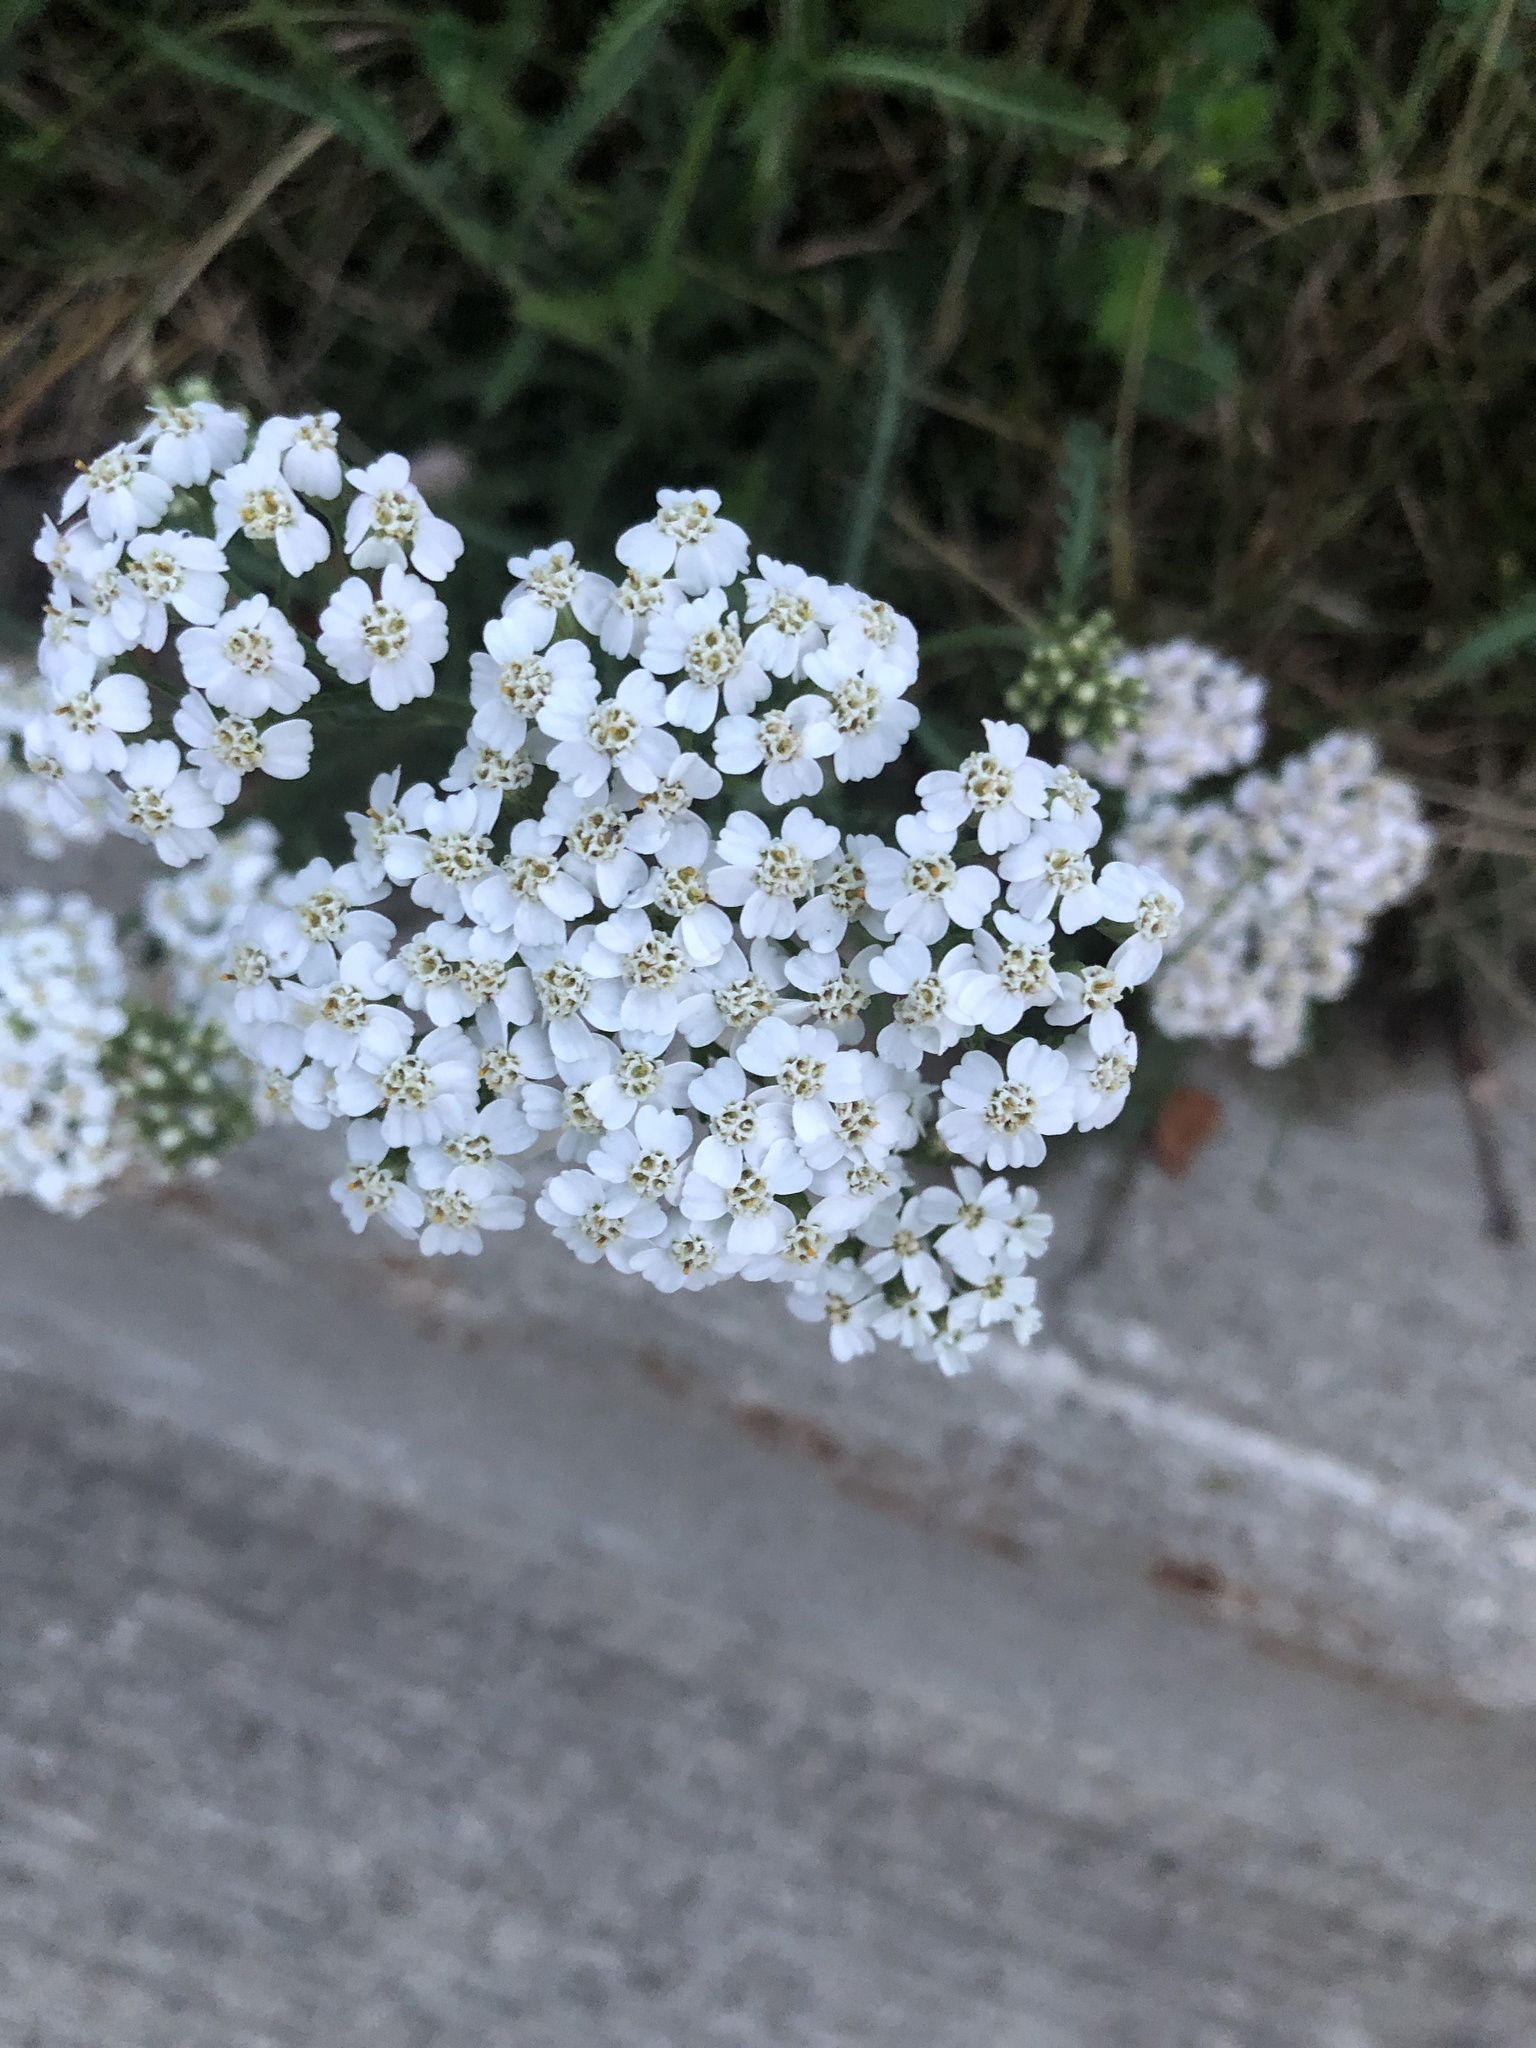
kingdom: Plantae
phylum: Tracheophyta
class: Magnoliopsida
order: Asterales
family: Asteraceae
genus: Achillea
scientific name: Achillea millefolium
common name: Yarrow
